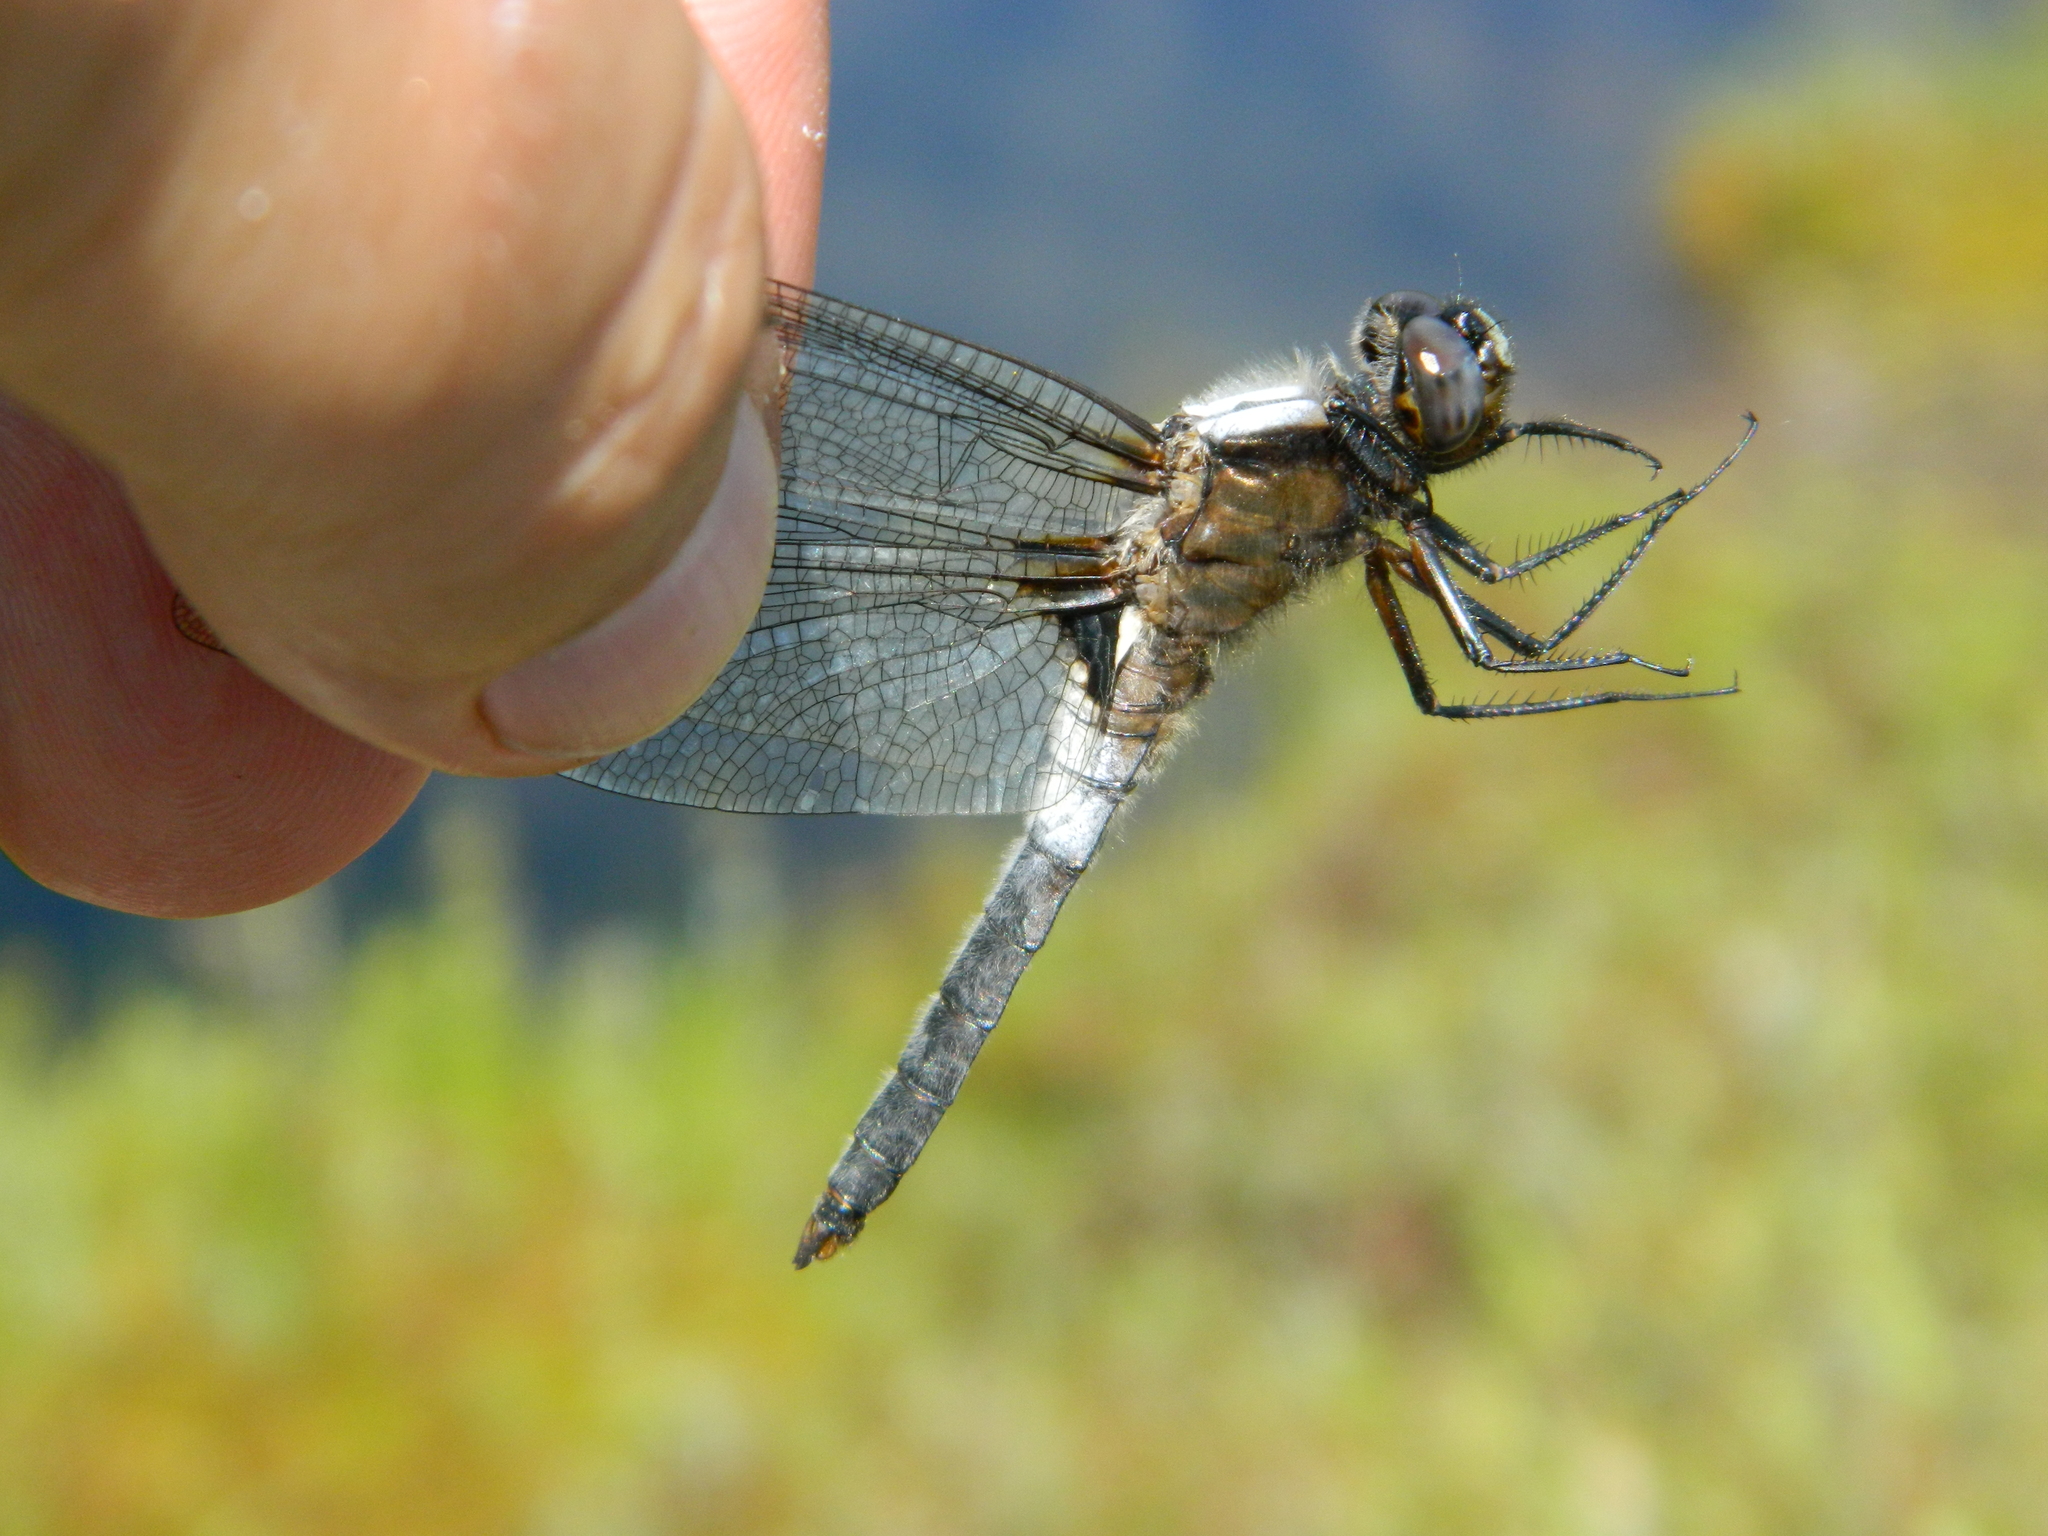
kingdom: Animalia
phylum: Arthropoda
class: Insecta
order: Odonata
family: Libellulidae
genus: Ladona
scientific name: Ladona julia
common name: Chalk-fronted corporal
